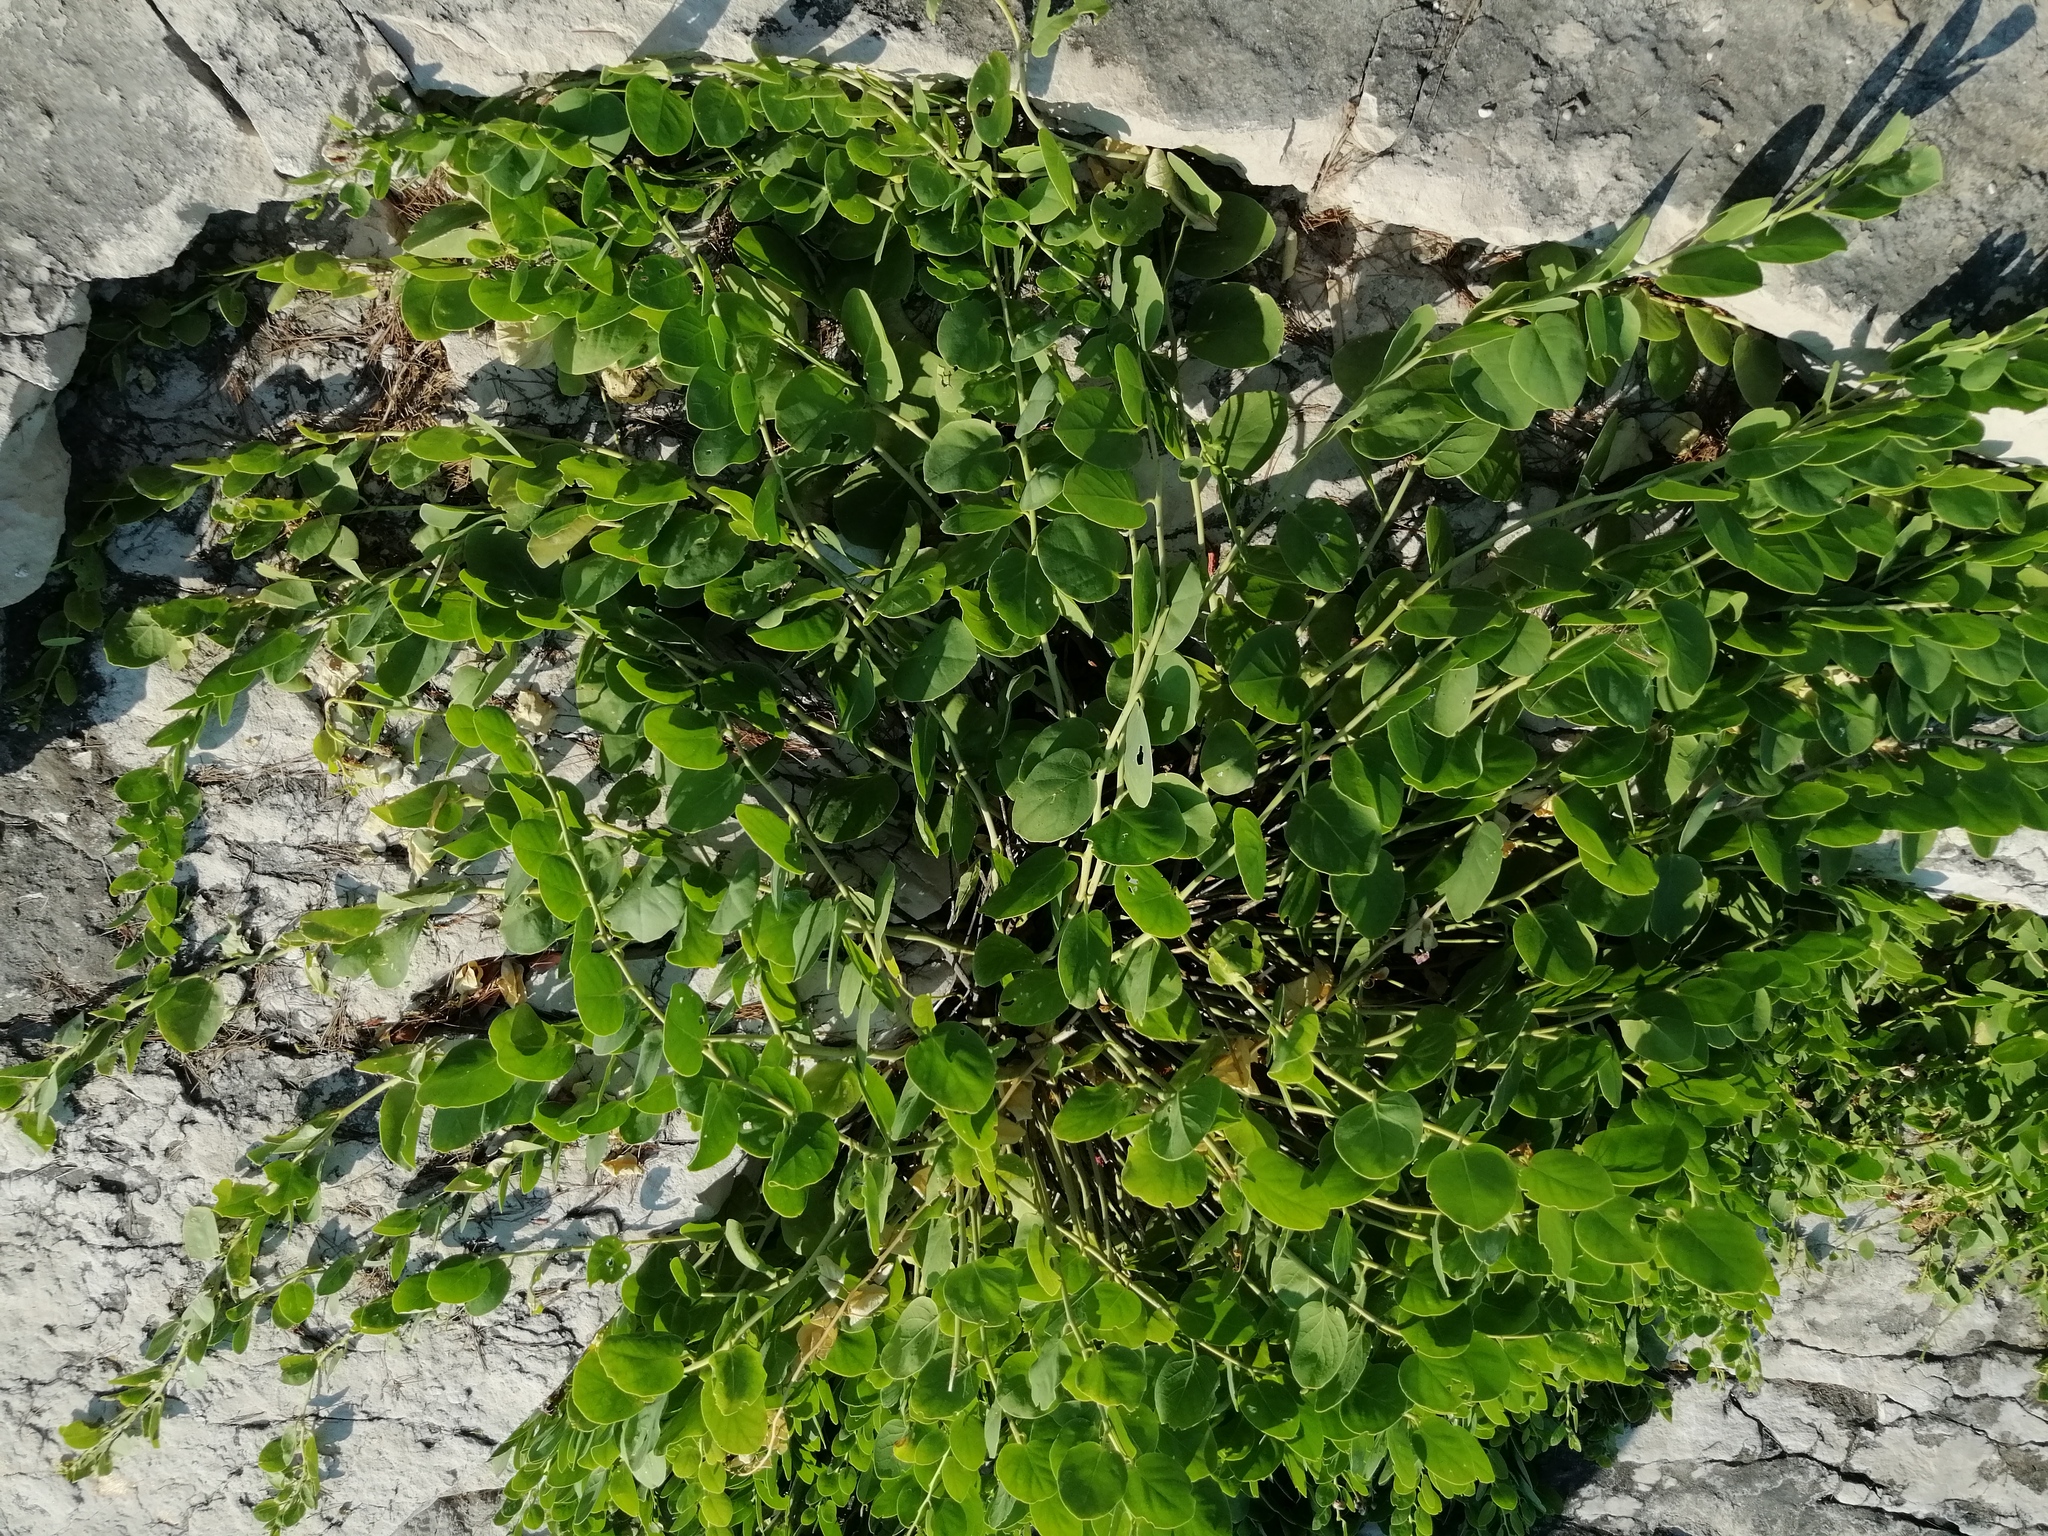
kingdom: Plantae
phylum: Tracheophyta
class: Magnoliopsida
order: Brassicales
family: Capparaceae
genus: Capparis
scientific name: Capparis orientalis
